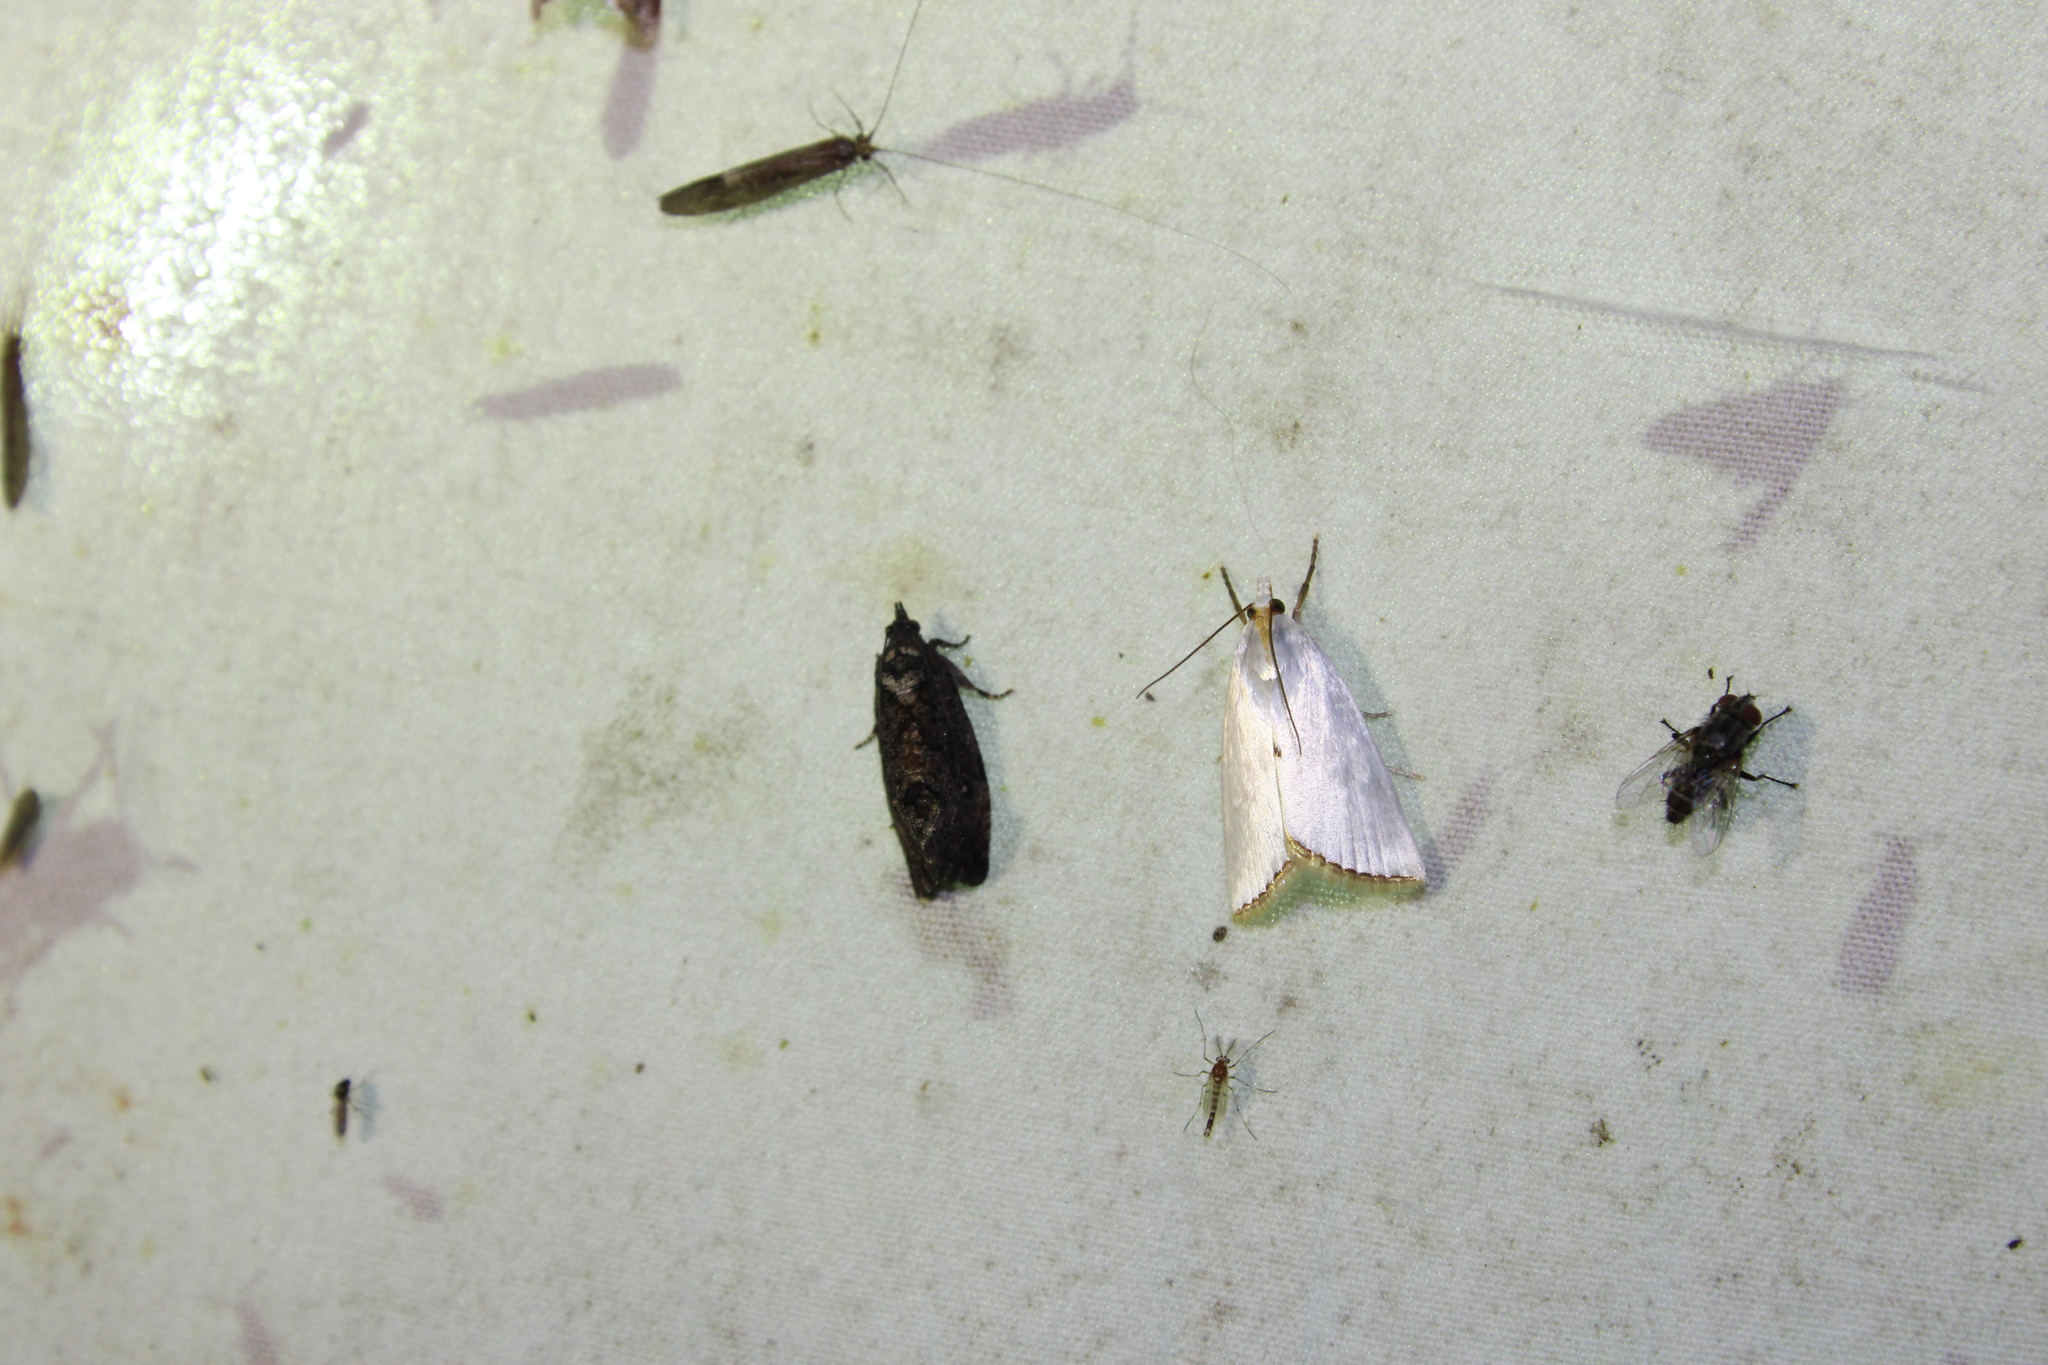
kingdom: Animalia
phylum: Arthropoda
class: Insecta
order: Lepidoptera
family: Crambidae
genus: Argyria
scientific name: Argyria nivalis
